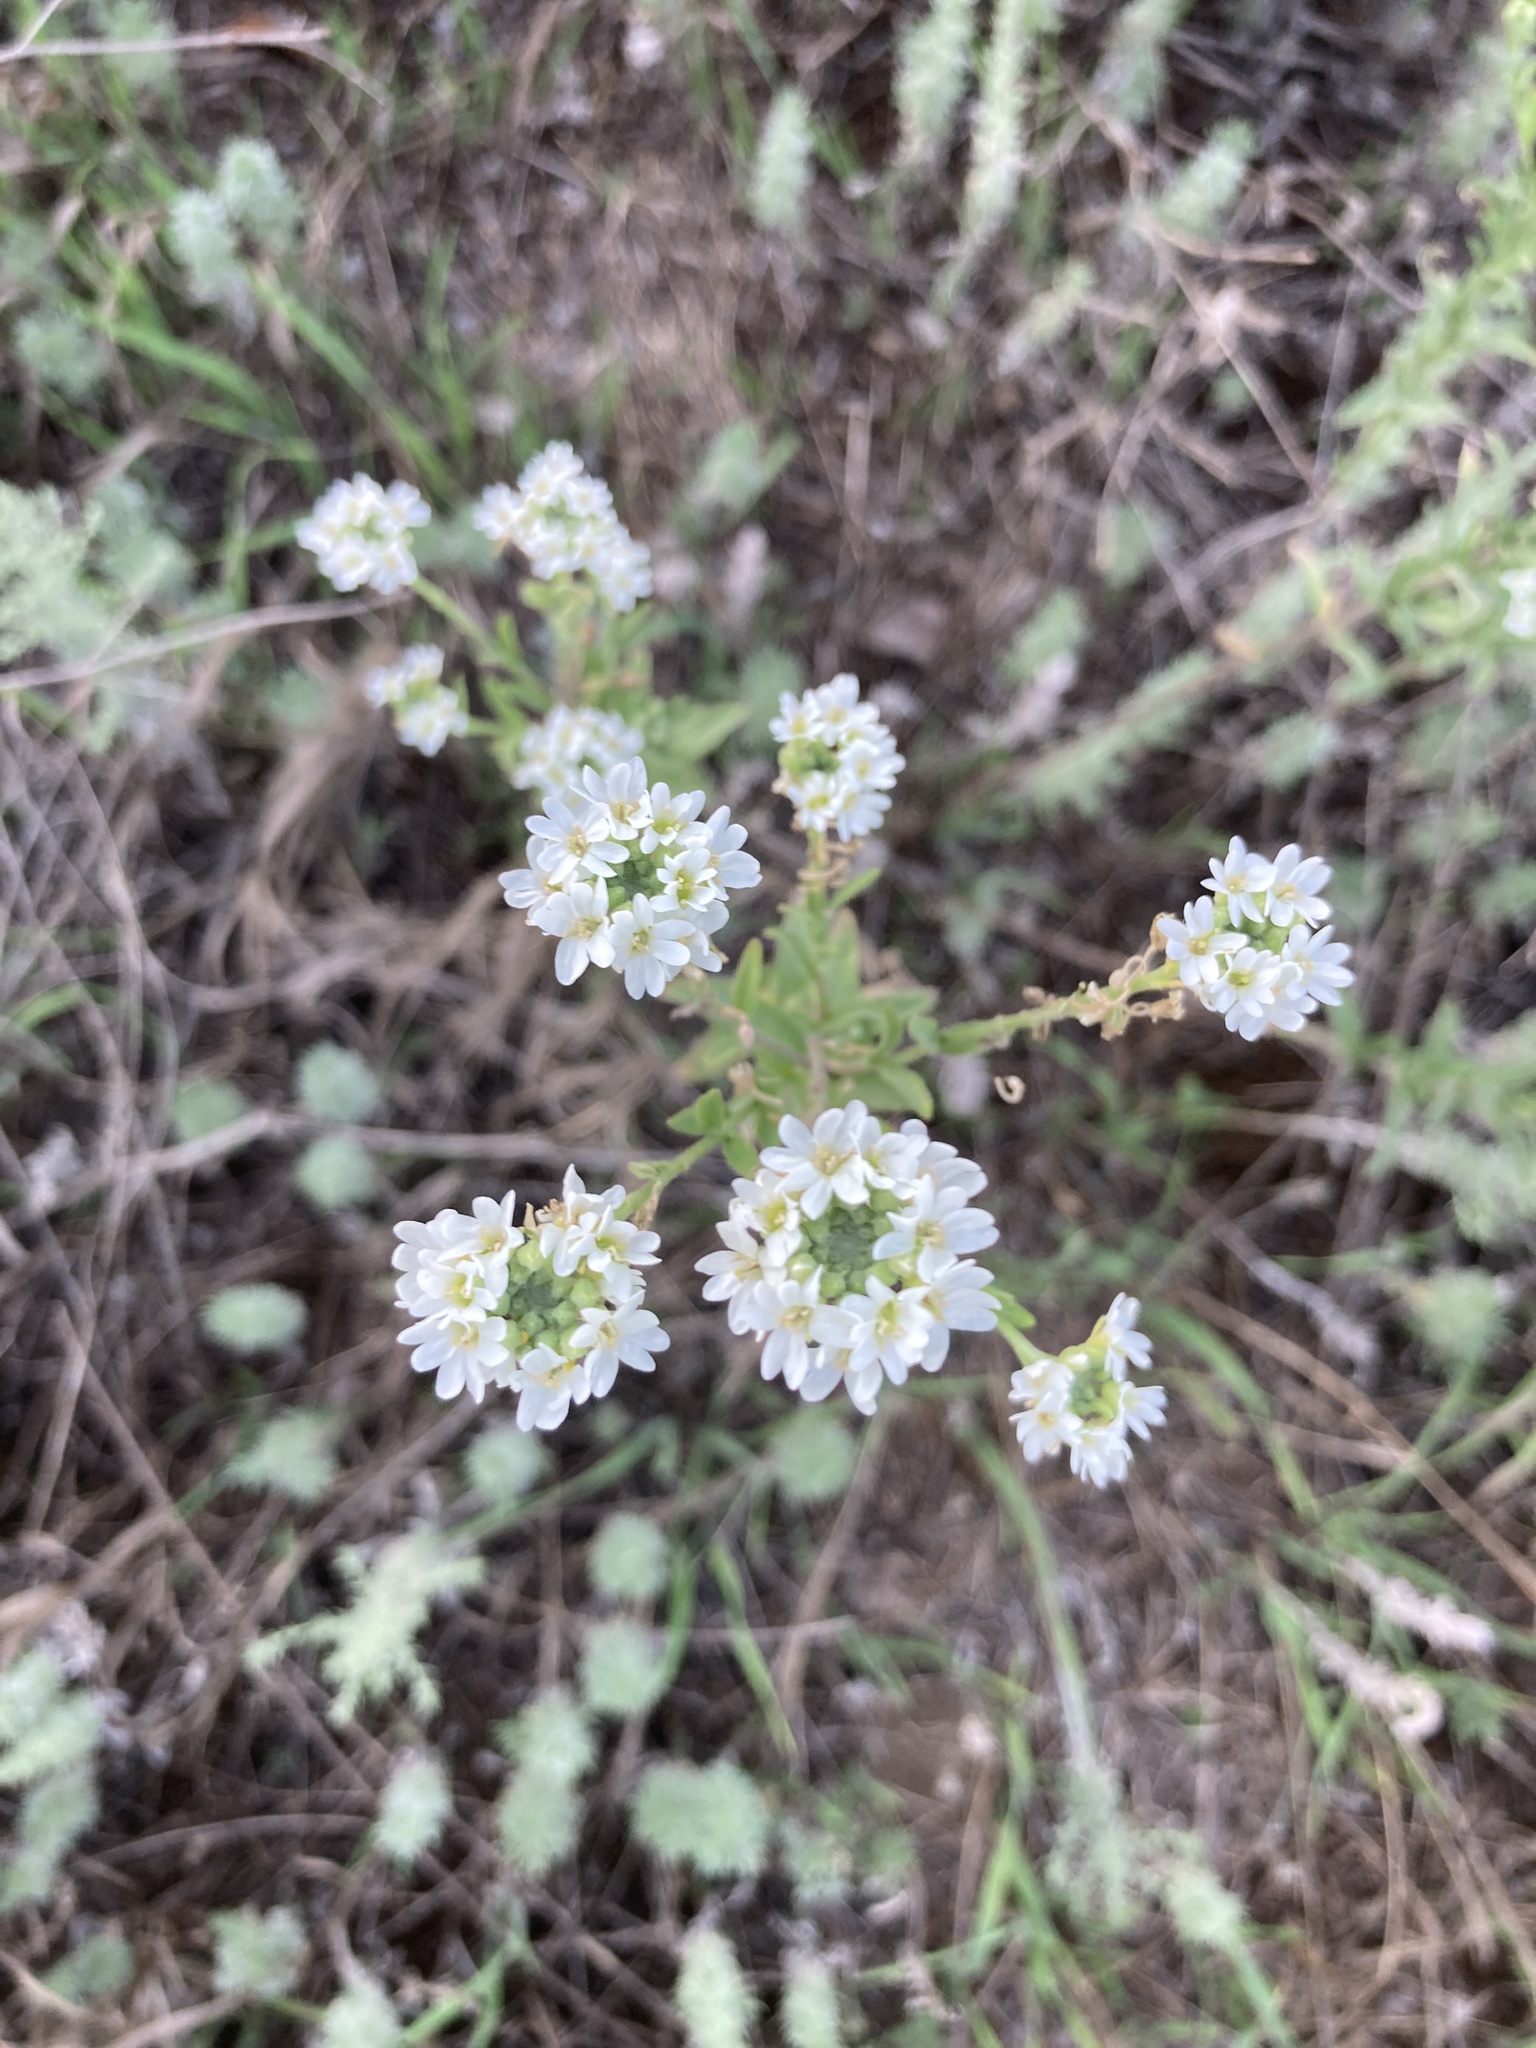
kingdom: Plantae
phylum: Tracheophyta
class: Magnoliopsida
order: Brassicales
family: Brassicaceae
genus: Berteroa
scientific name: Berteroa incana
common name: Hoary alison
